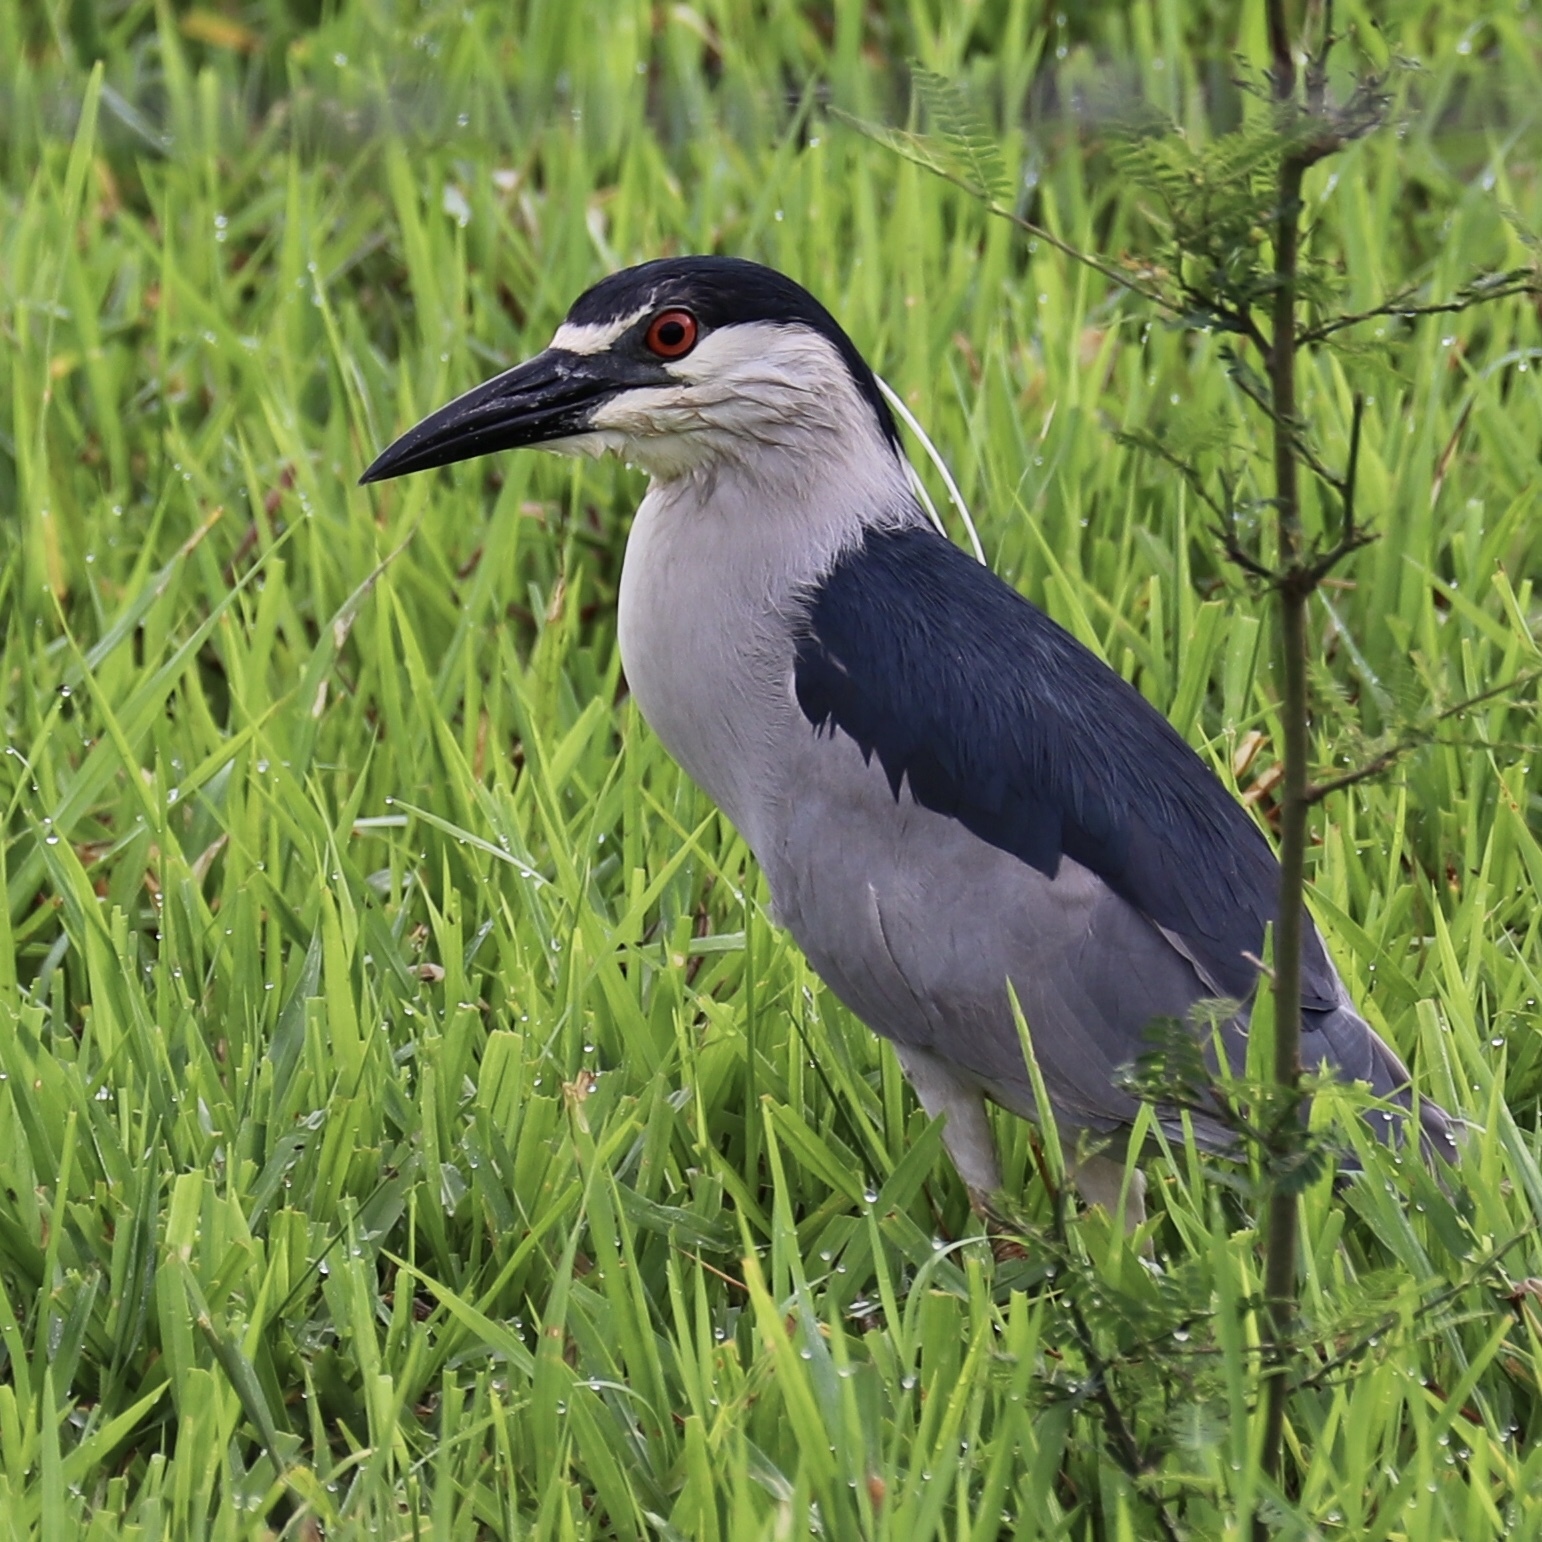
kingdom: Animalia
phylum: Chordata
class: Aves
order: Pelecaniformes
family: Ardeidae
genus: Nycticorax
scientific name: Nycticorax nycticorax
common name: Black-crowned night heron
